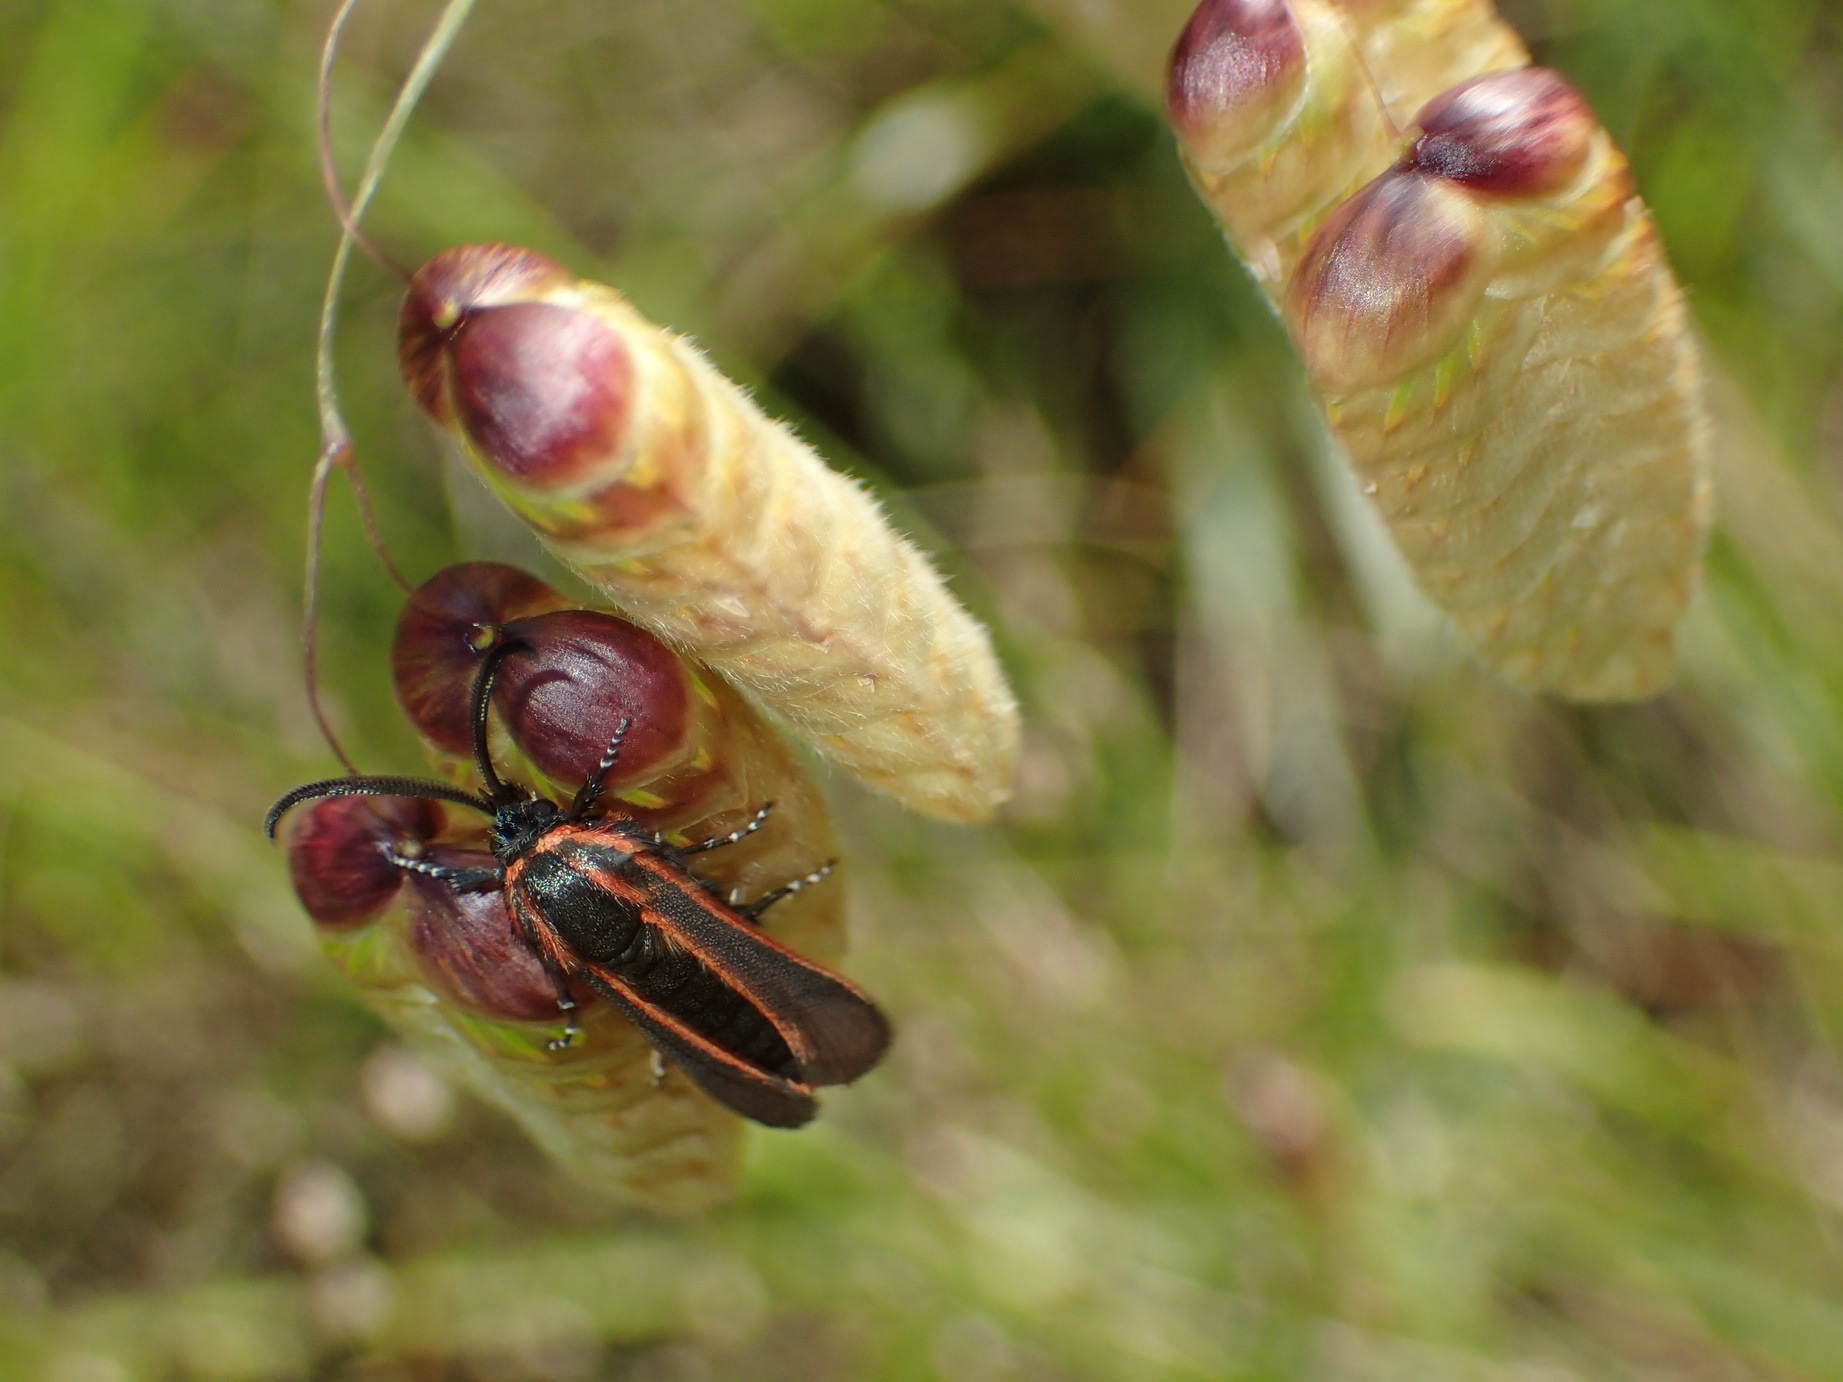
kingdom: Plantae
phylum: Tracheophyta
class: Liliopsida
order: Poales
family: Poaceae
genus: Briza
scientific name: Briza maxima
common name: Big quakinggrass
